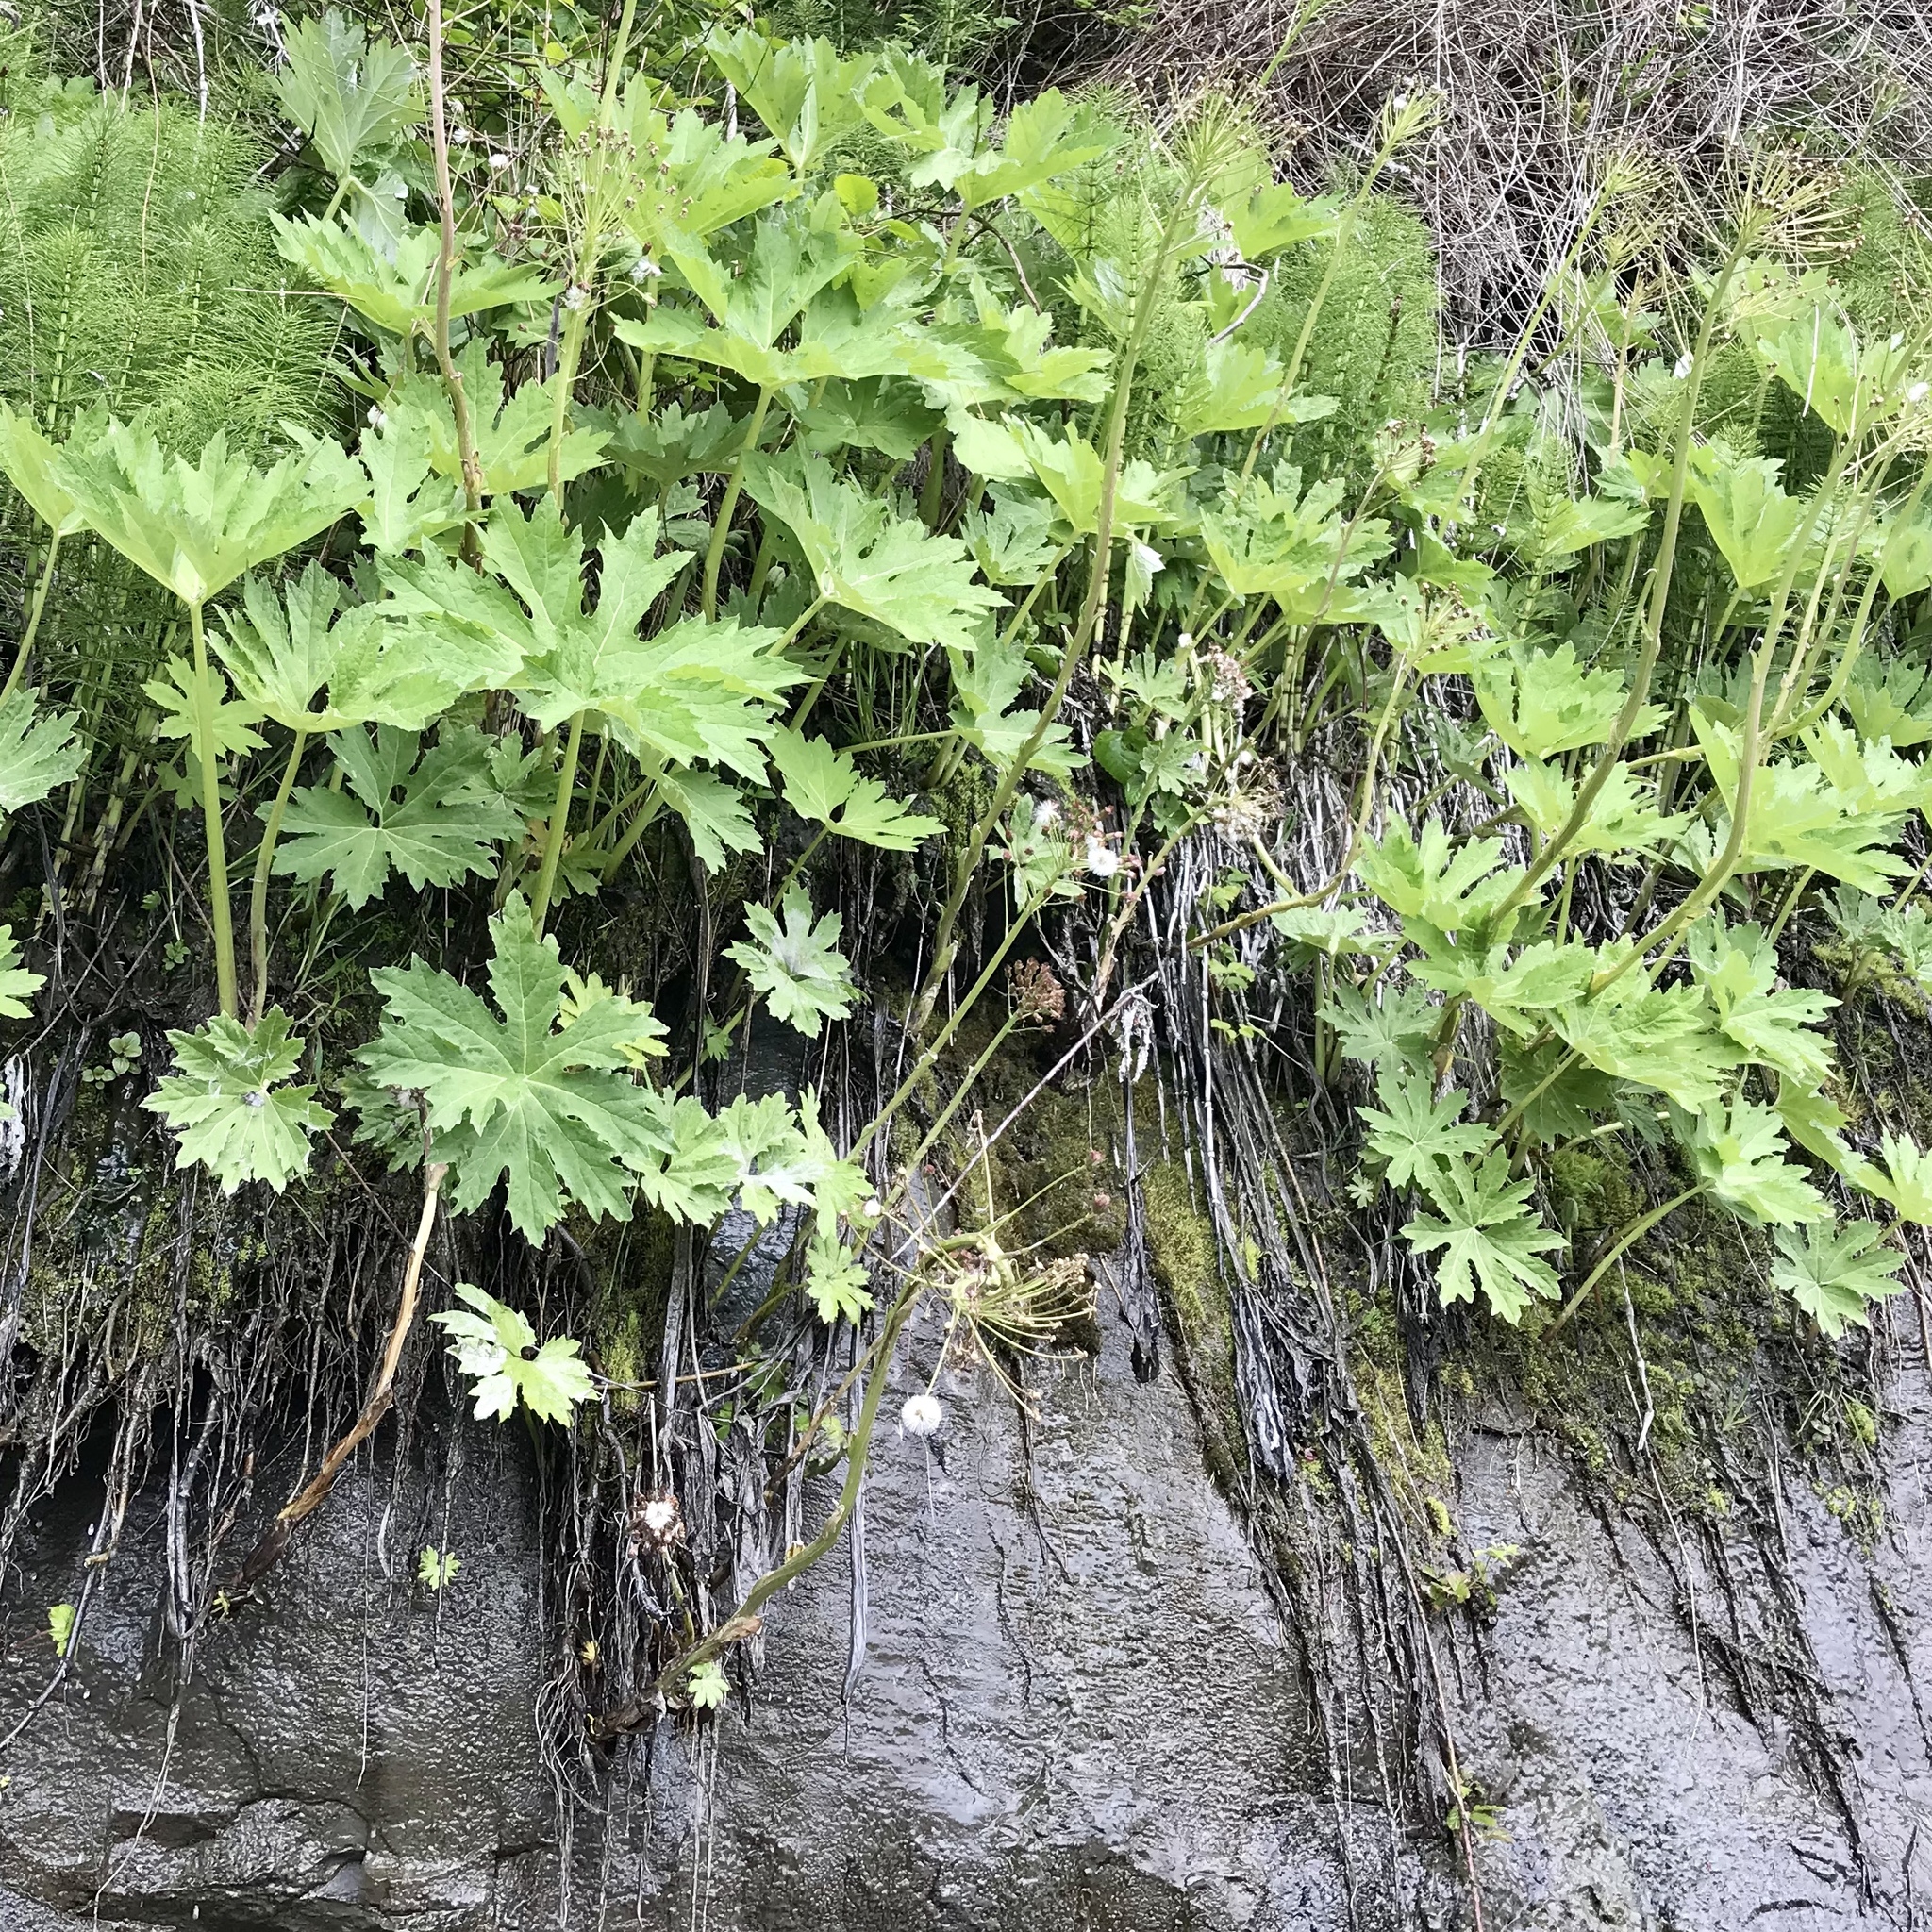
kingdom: Plantae
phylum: Tracheophyta
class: Magnoliopsida
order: Asterales
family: Asteraceae
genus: Petasites
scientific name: Petasites frigidus
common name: Arctic butterbur
